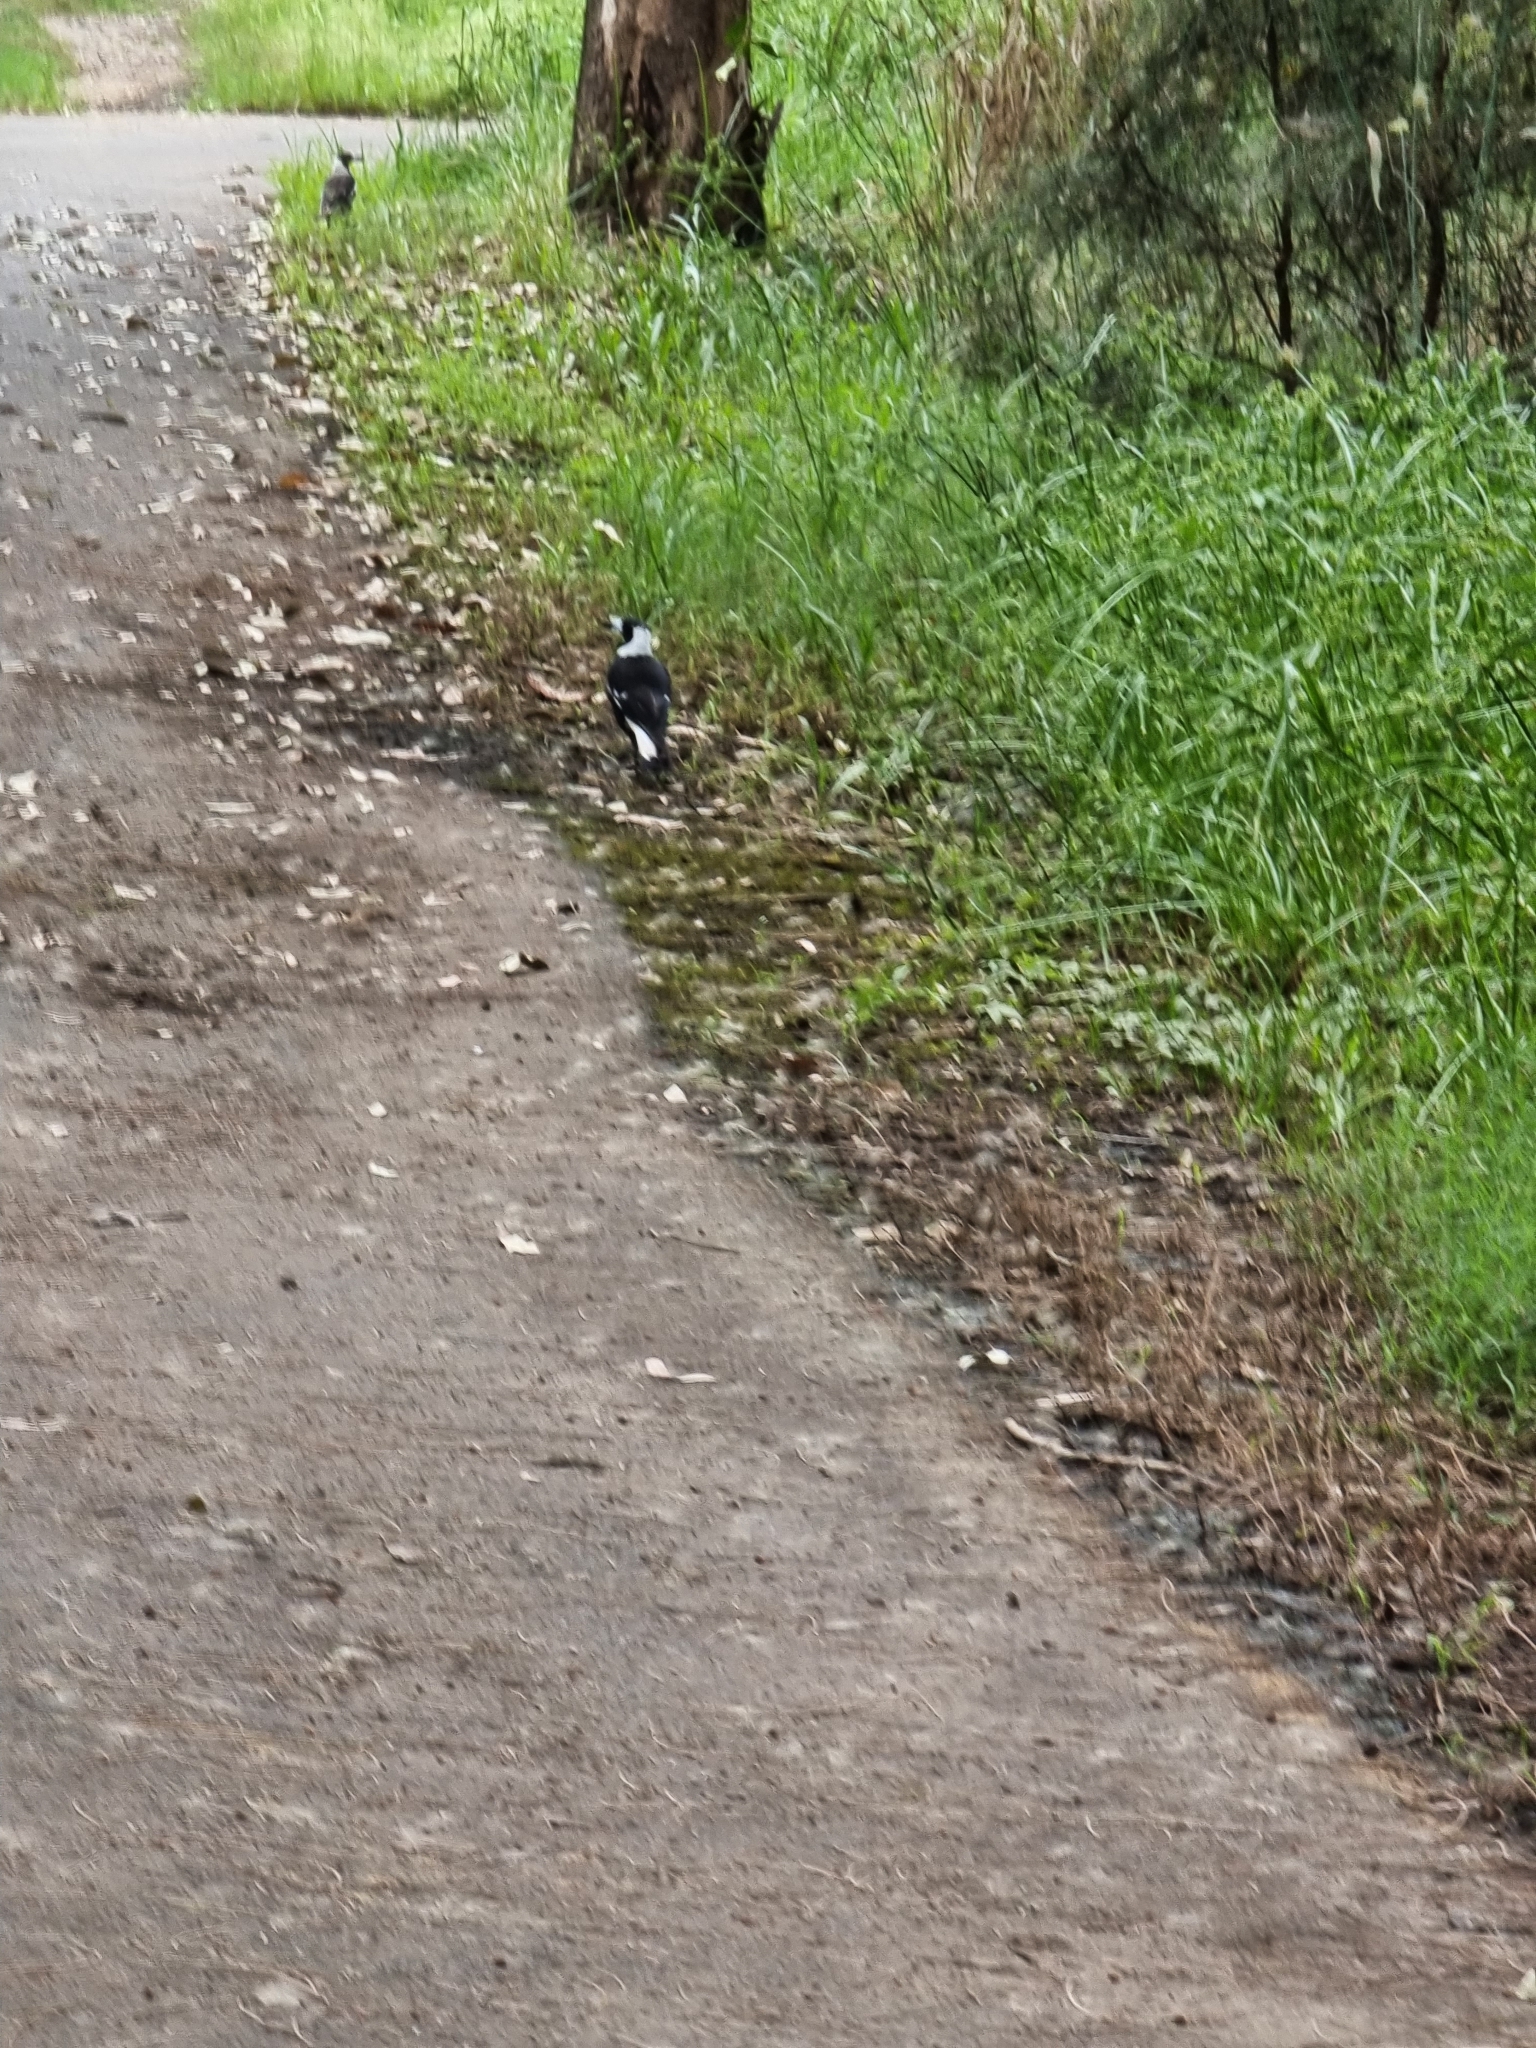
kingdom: Animalia
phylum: Chordata
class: Aves
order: Passeriformes
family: Cracticidae
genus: Gymnorhina
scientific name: Gymnorhina tibicen
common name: Australian magpie
